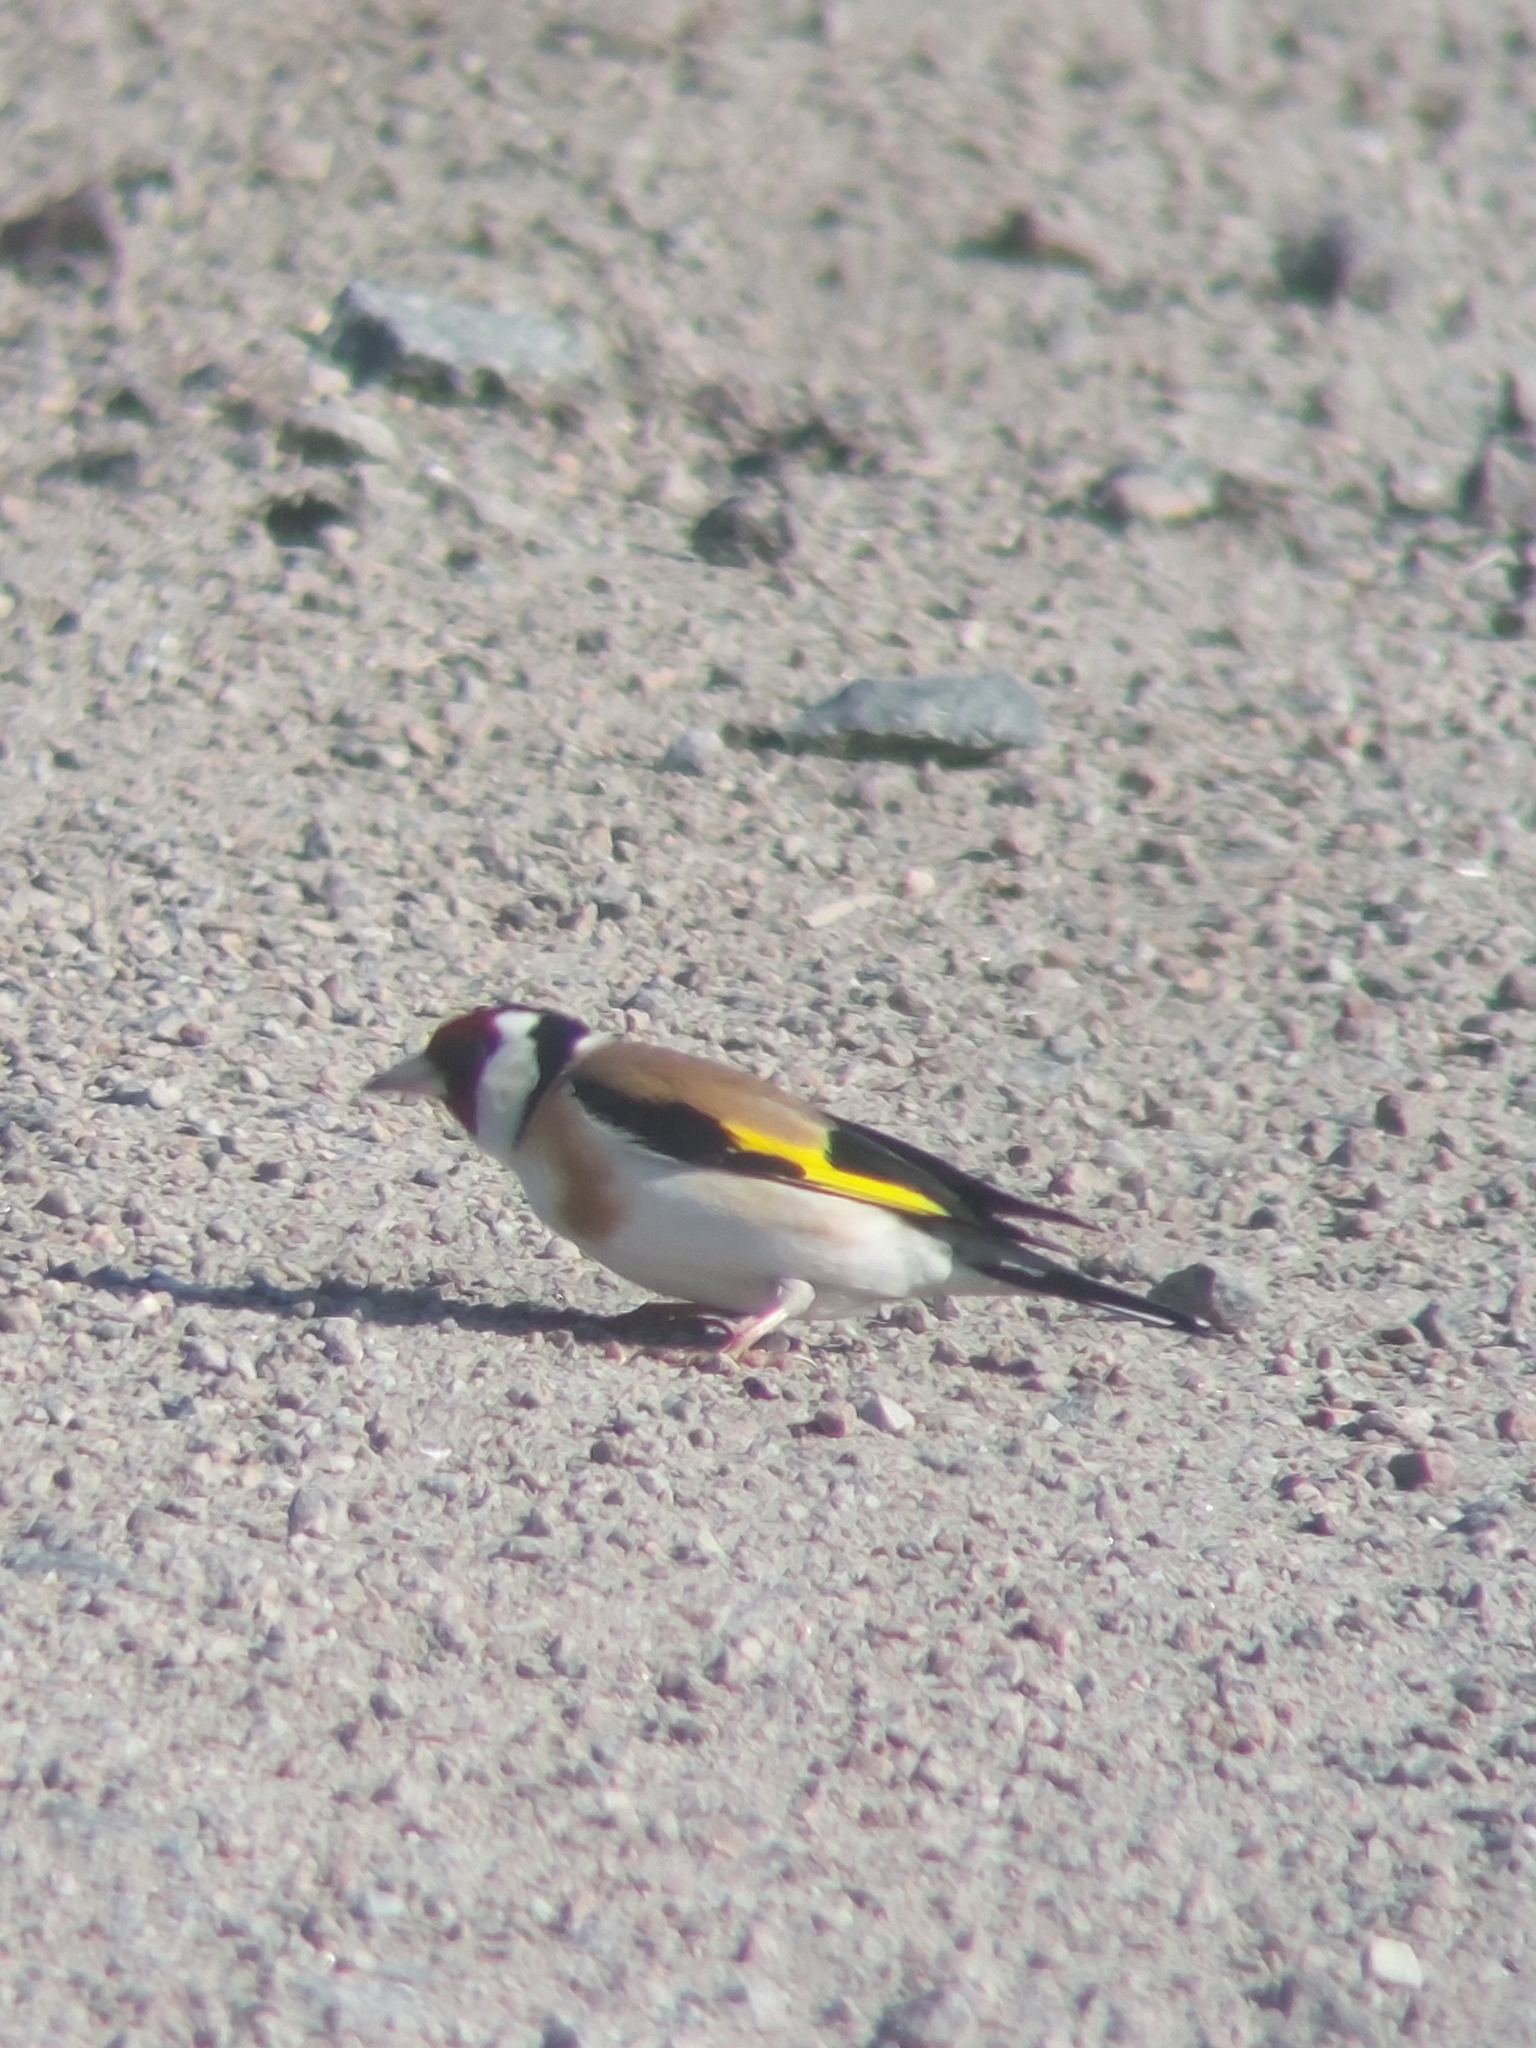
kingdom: Animalia
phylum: Chordata
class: Aves
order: Passeriformes
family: Fringillidae
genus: Carduelis
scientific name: Carduelis carduelis
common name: European goldfinch
